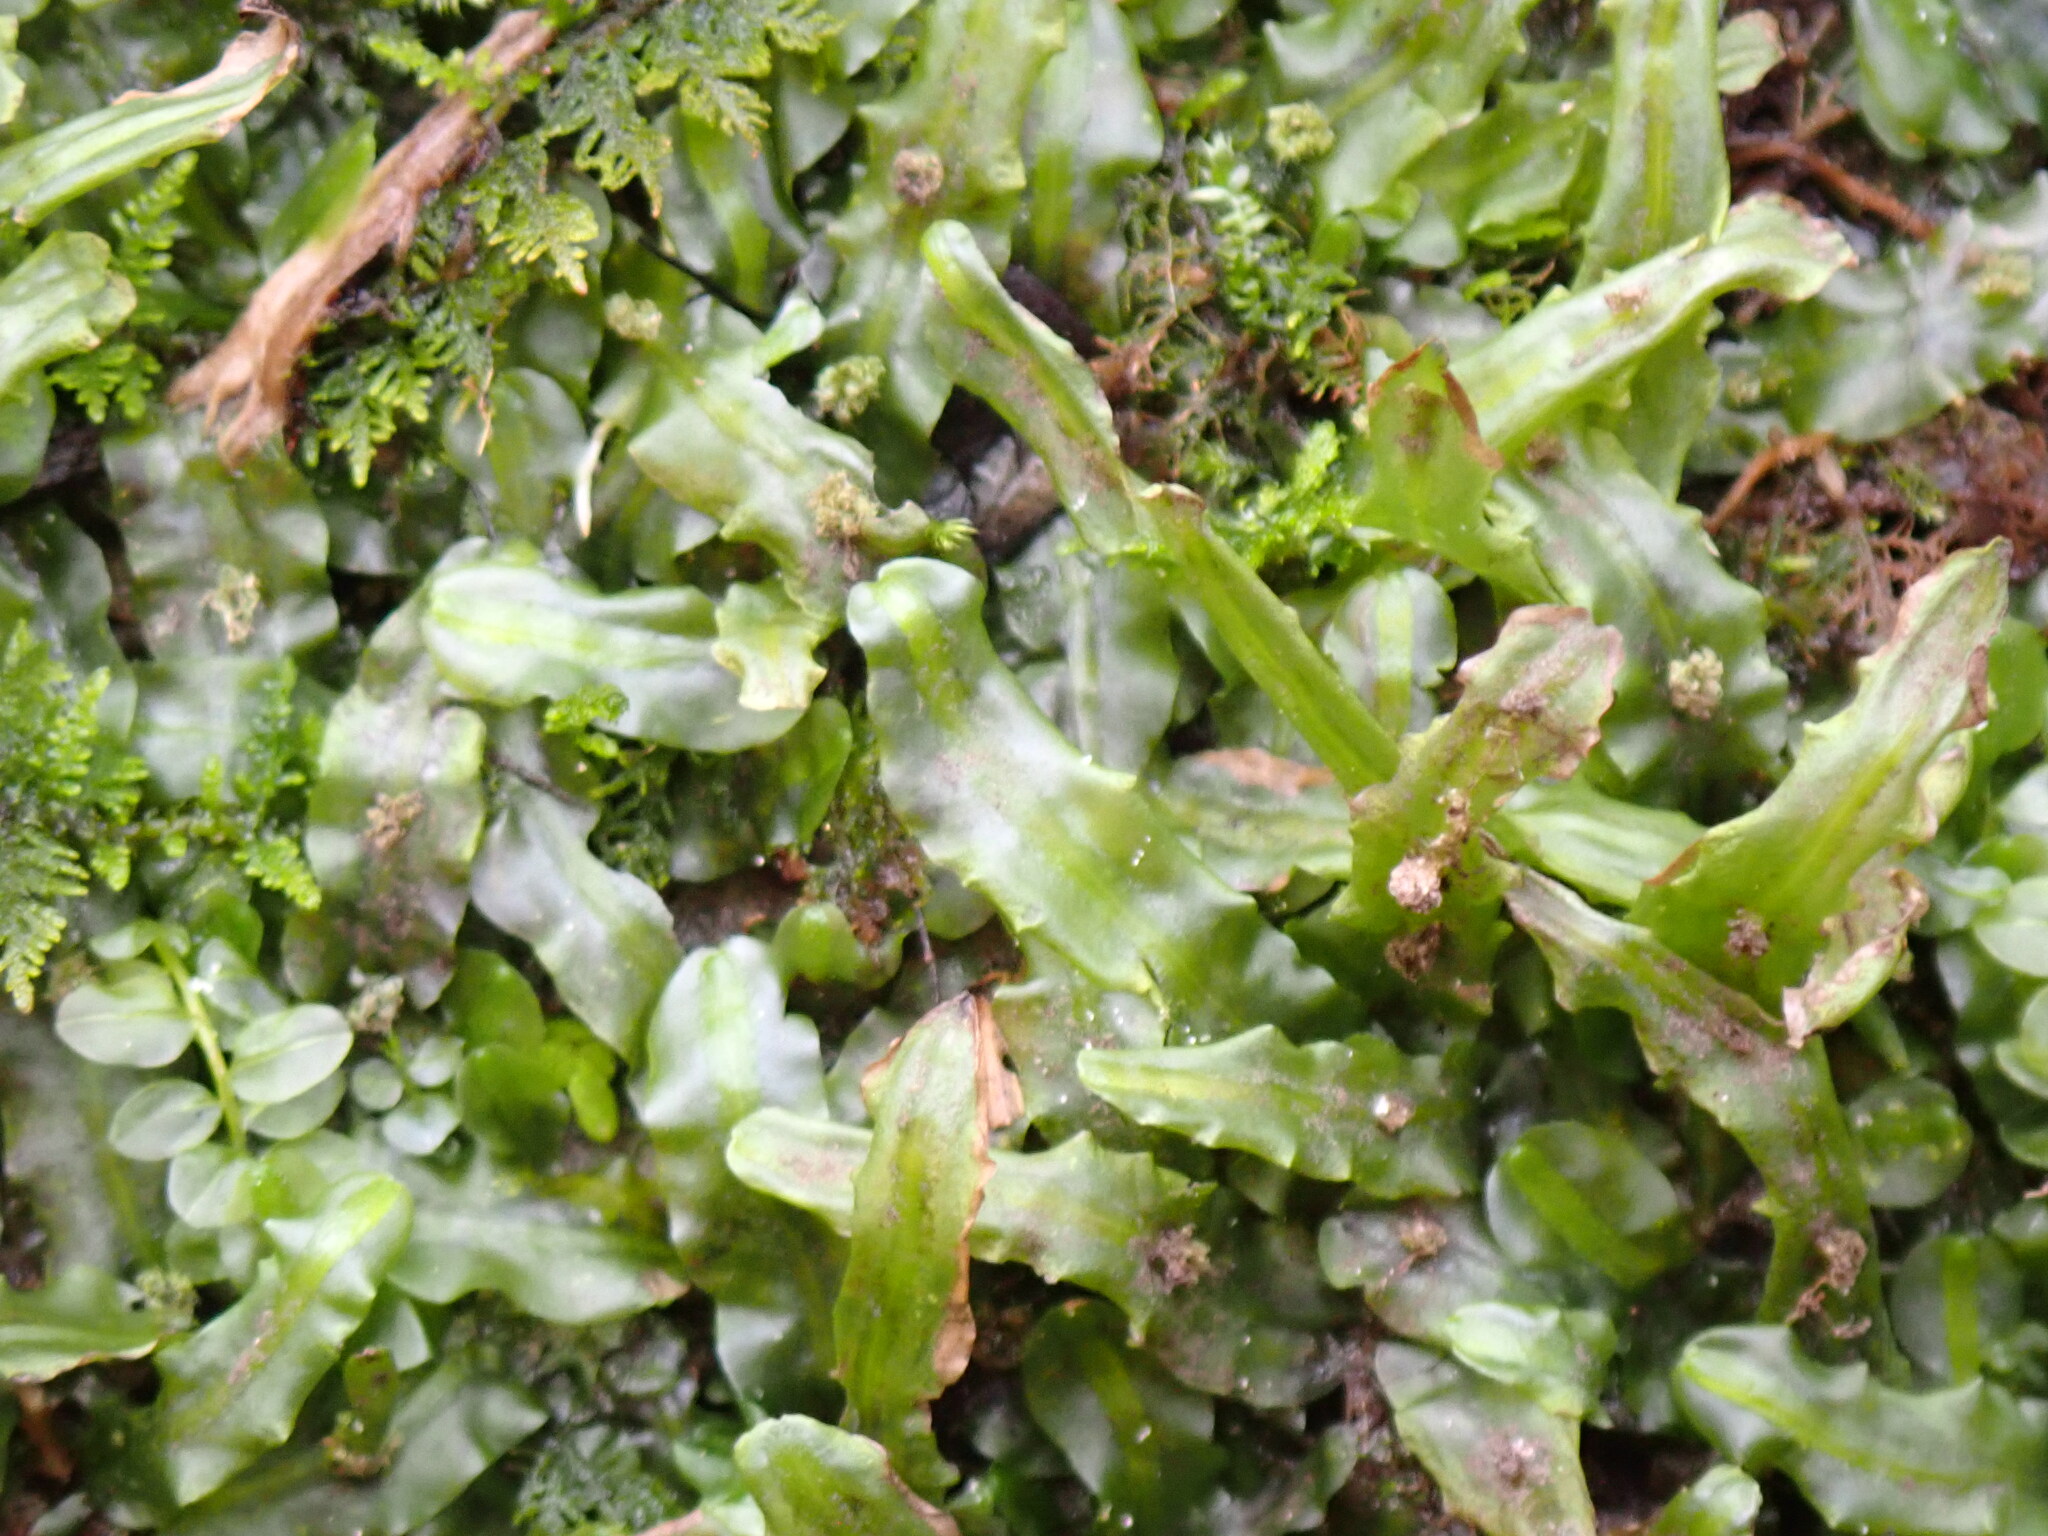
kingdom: Plantae
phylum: Marchantiophyta
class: Jungermanniopsida
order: Pallaviciniales
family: Pallaviciniaceae
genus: Pallavicinia
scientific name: Pallavicinia lyellii
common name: Veilwort
